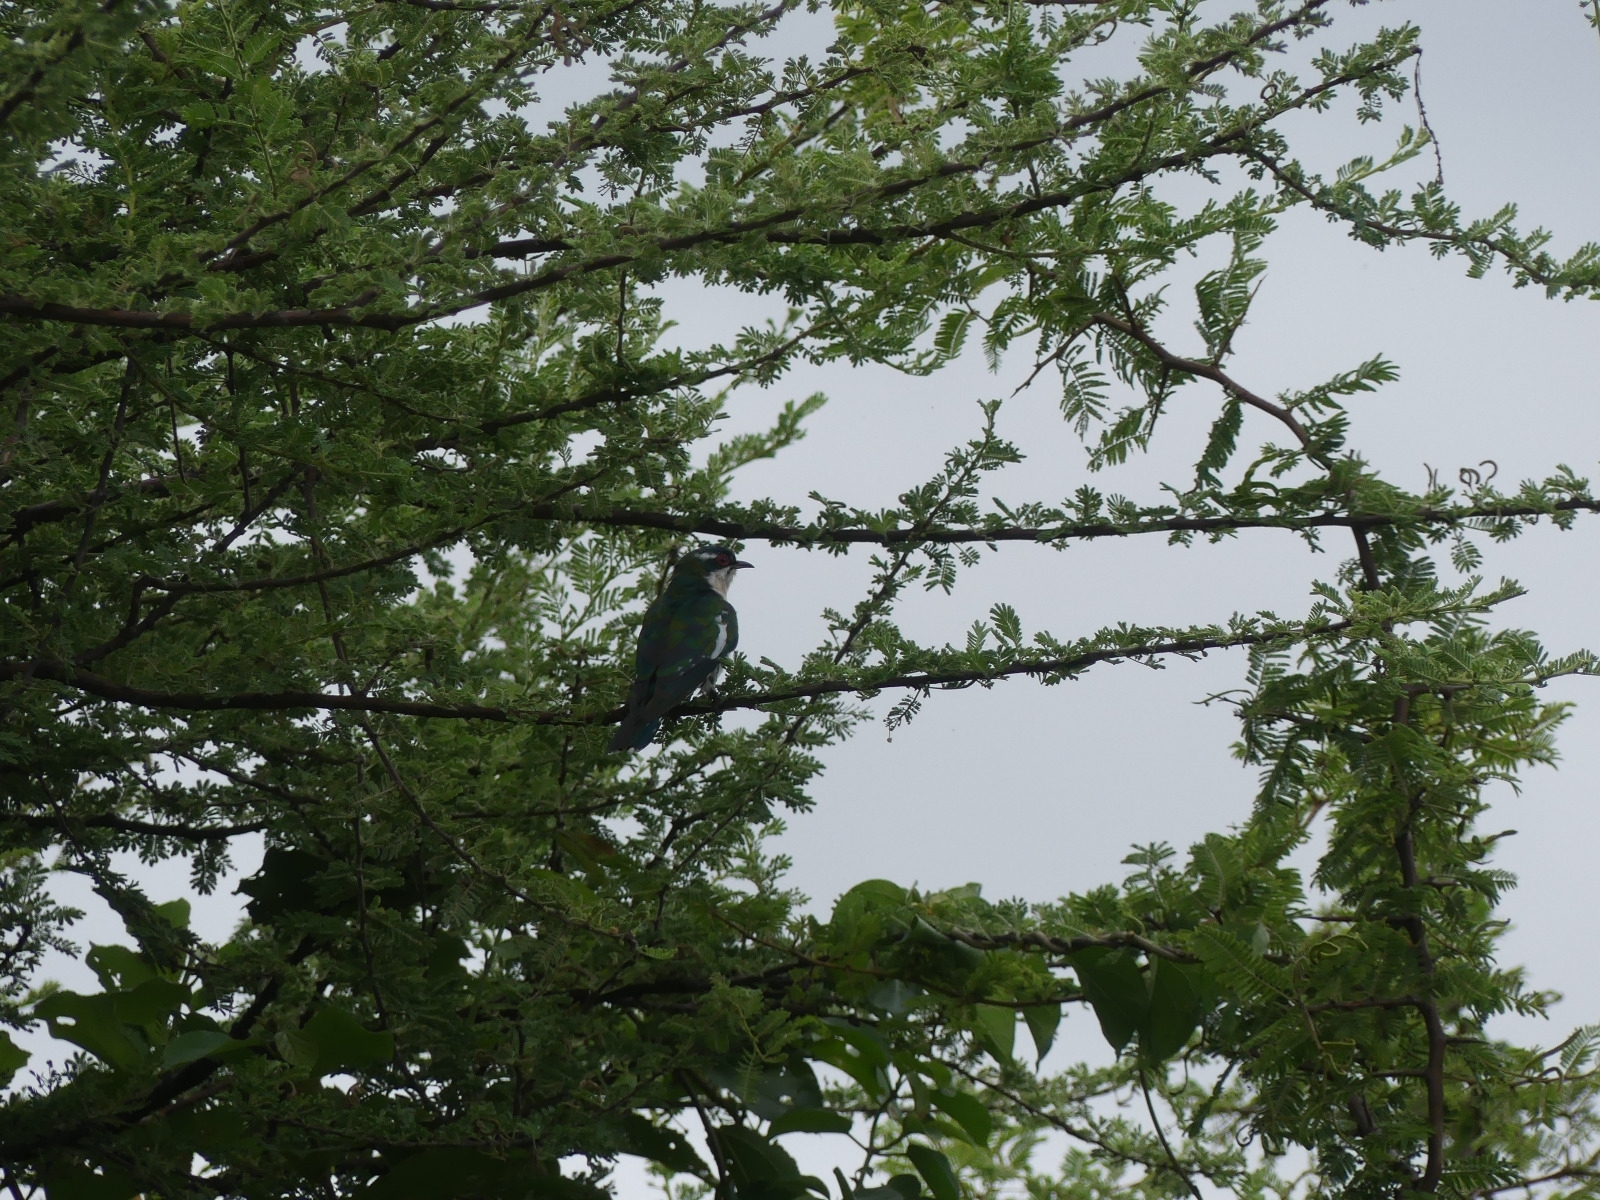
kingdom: Animalia
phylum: Chordata
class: Aves
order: Cuculiformes
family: Cuculidae
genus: Chrysococcyx
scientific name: Chrysococcyx caprius
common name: Diederik cuckoo
